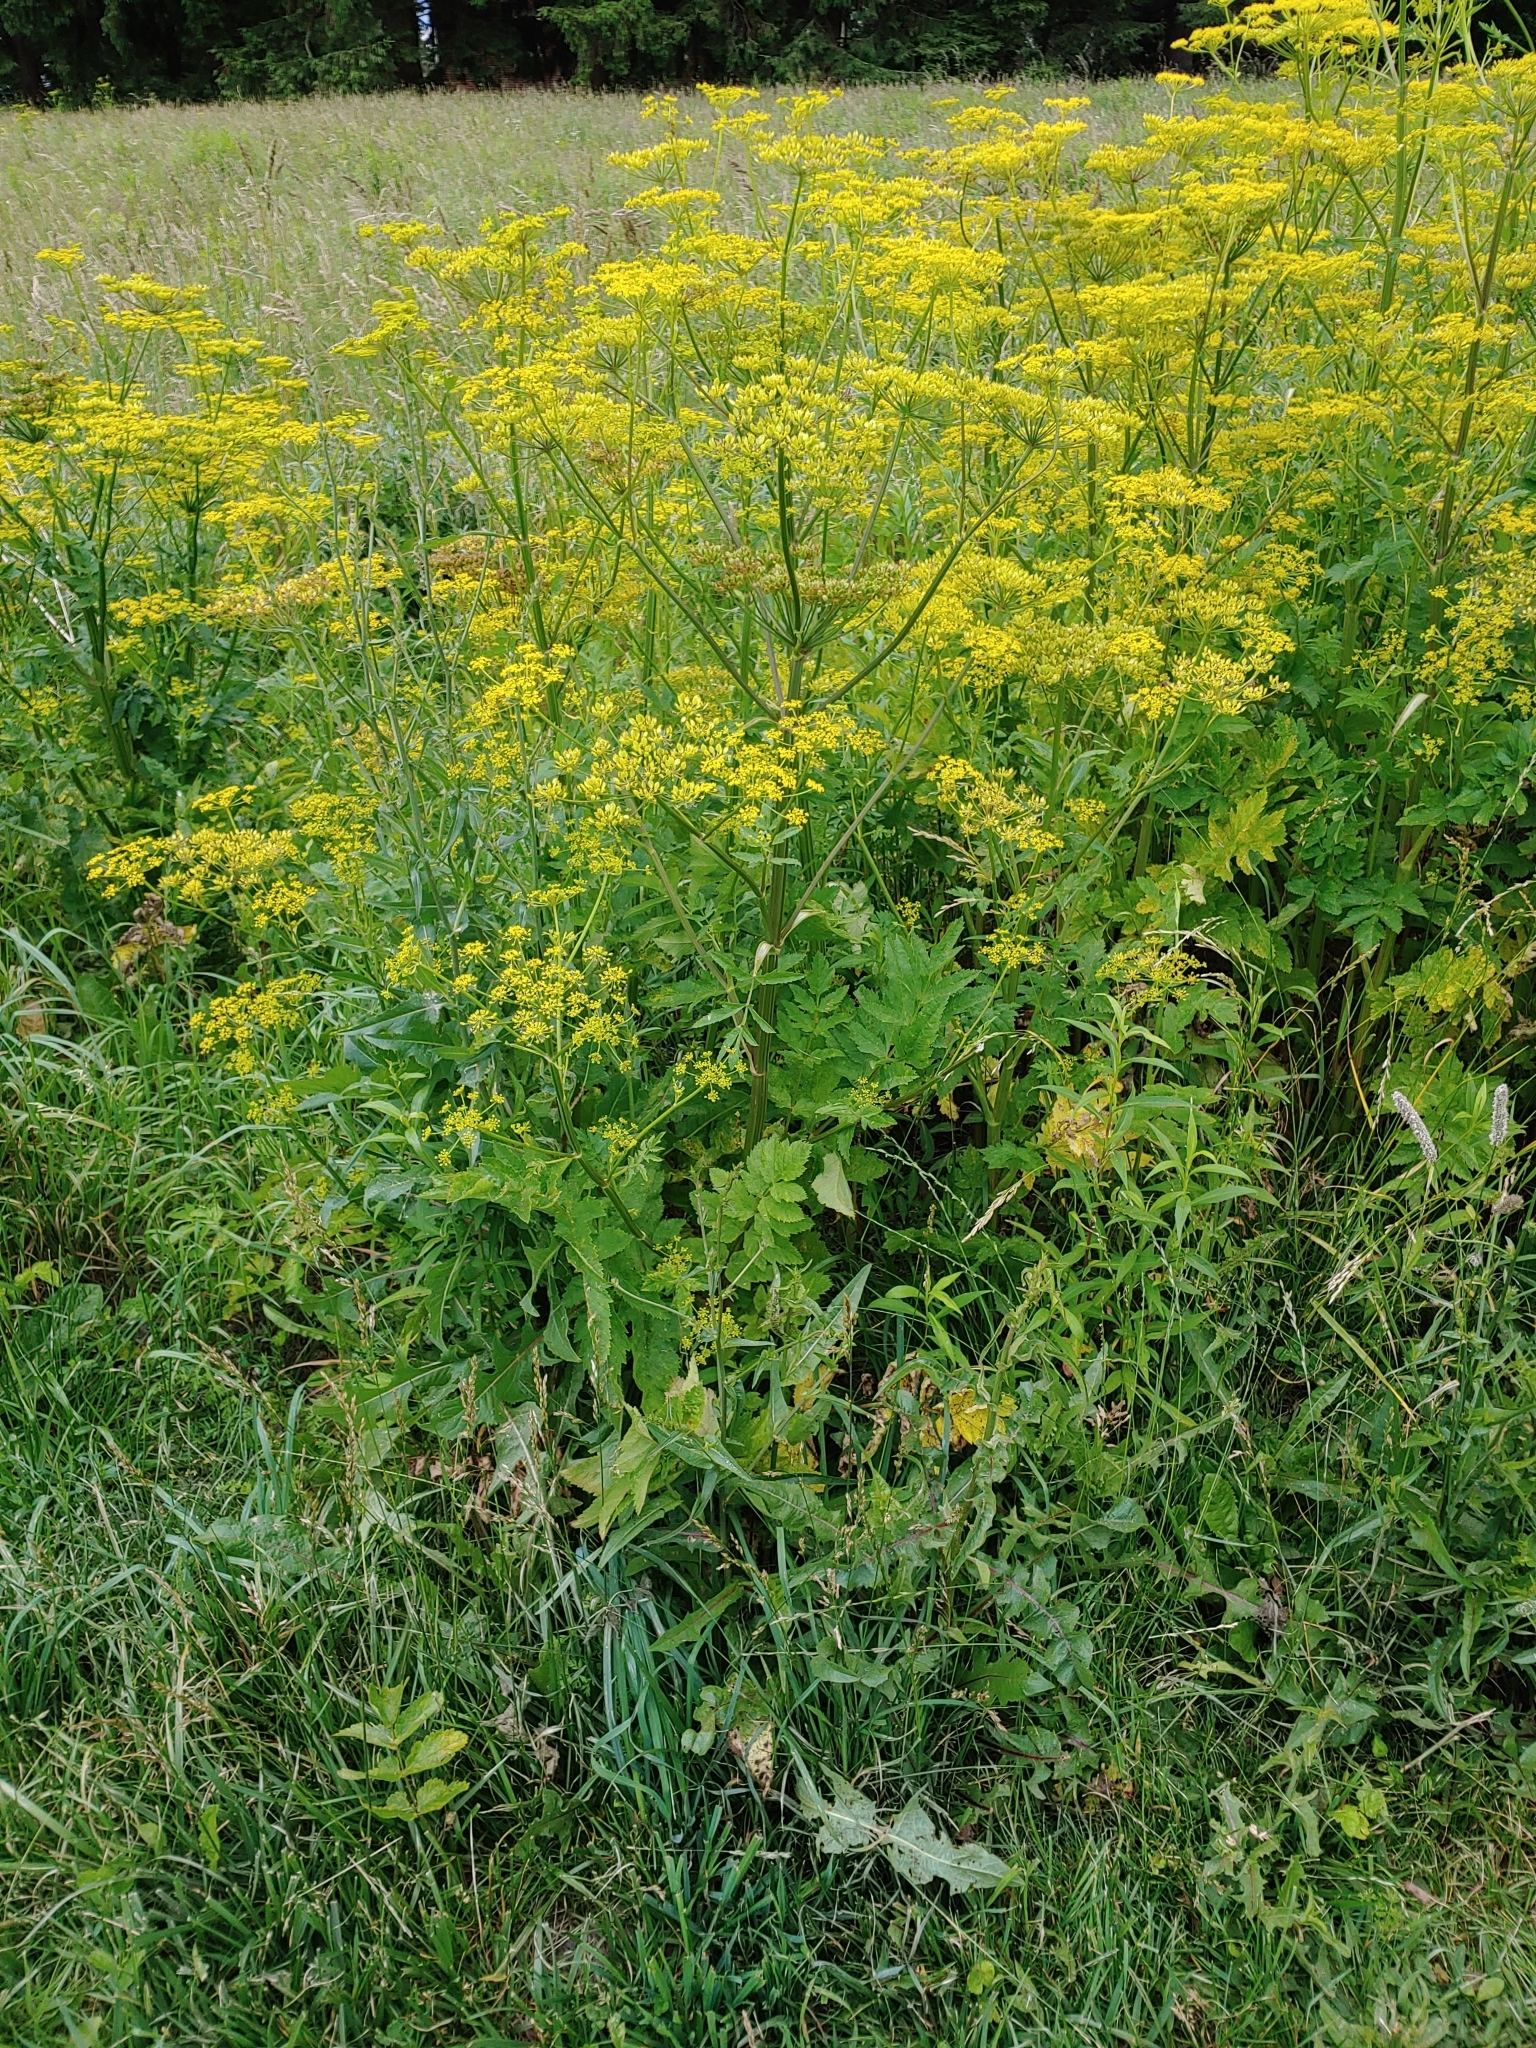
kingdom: Plantae
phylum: Tracheophyta
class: Magnoliopsida
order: Apiales
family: Apiaceae
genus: Pastinaca
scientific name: Pastinaca sativa
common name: Wild parsnip
